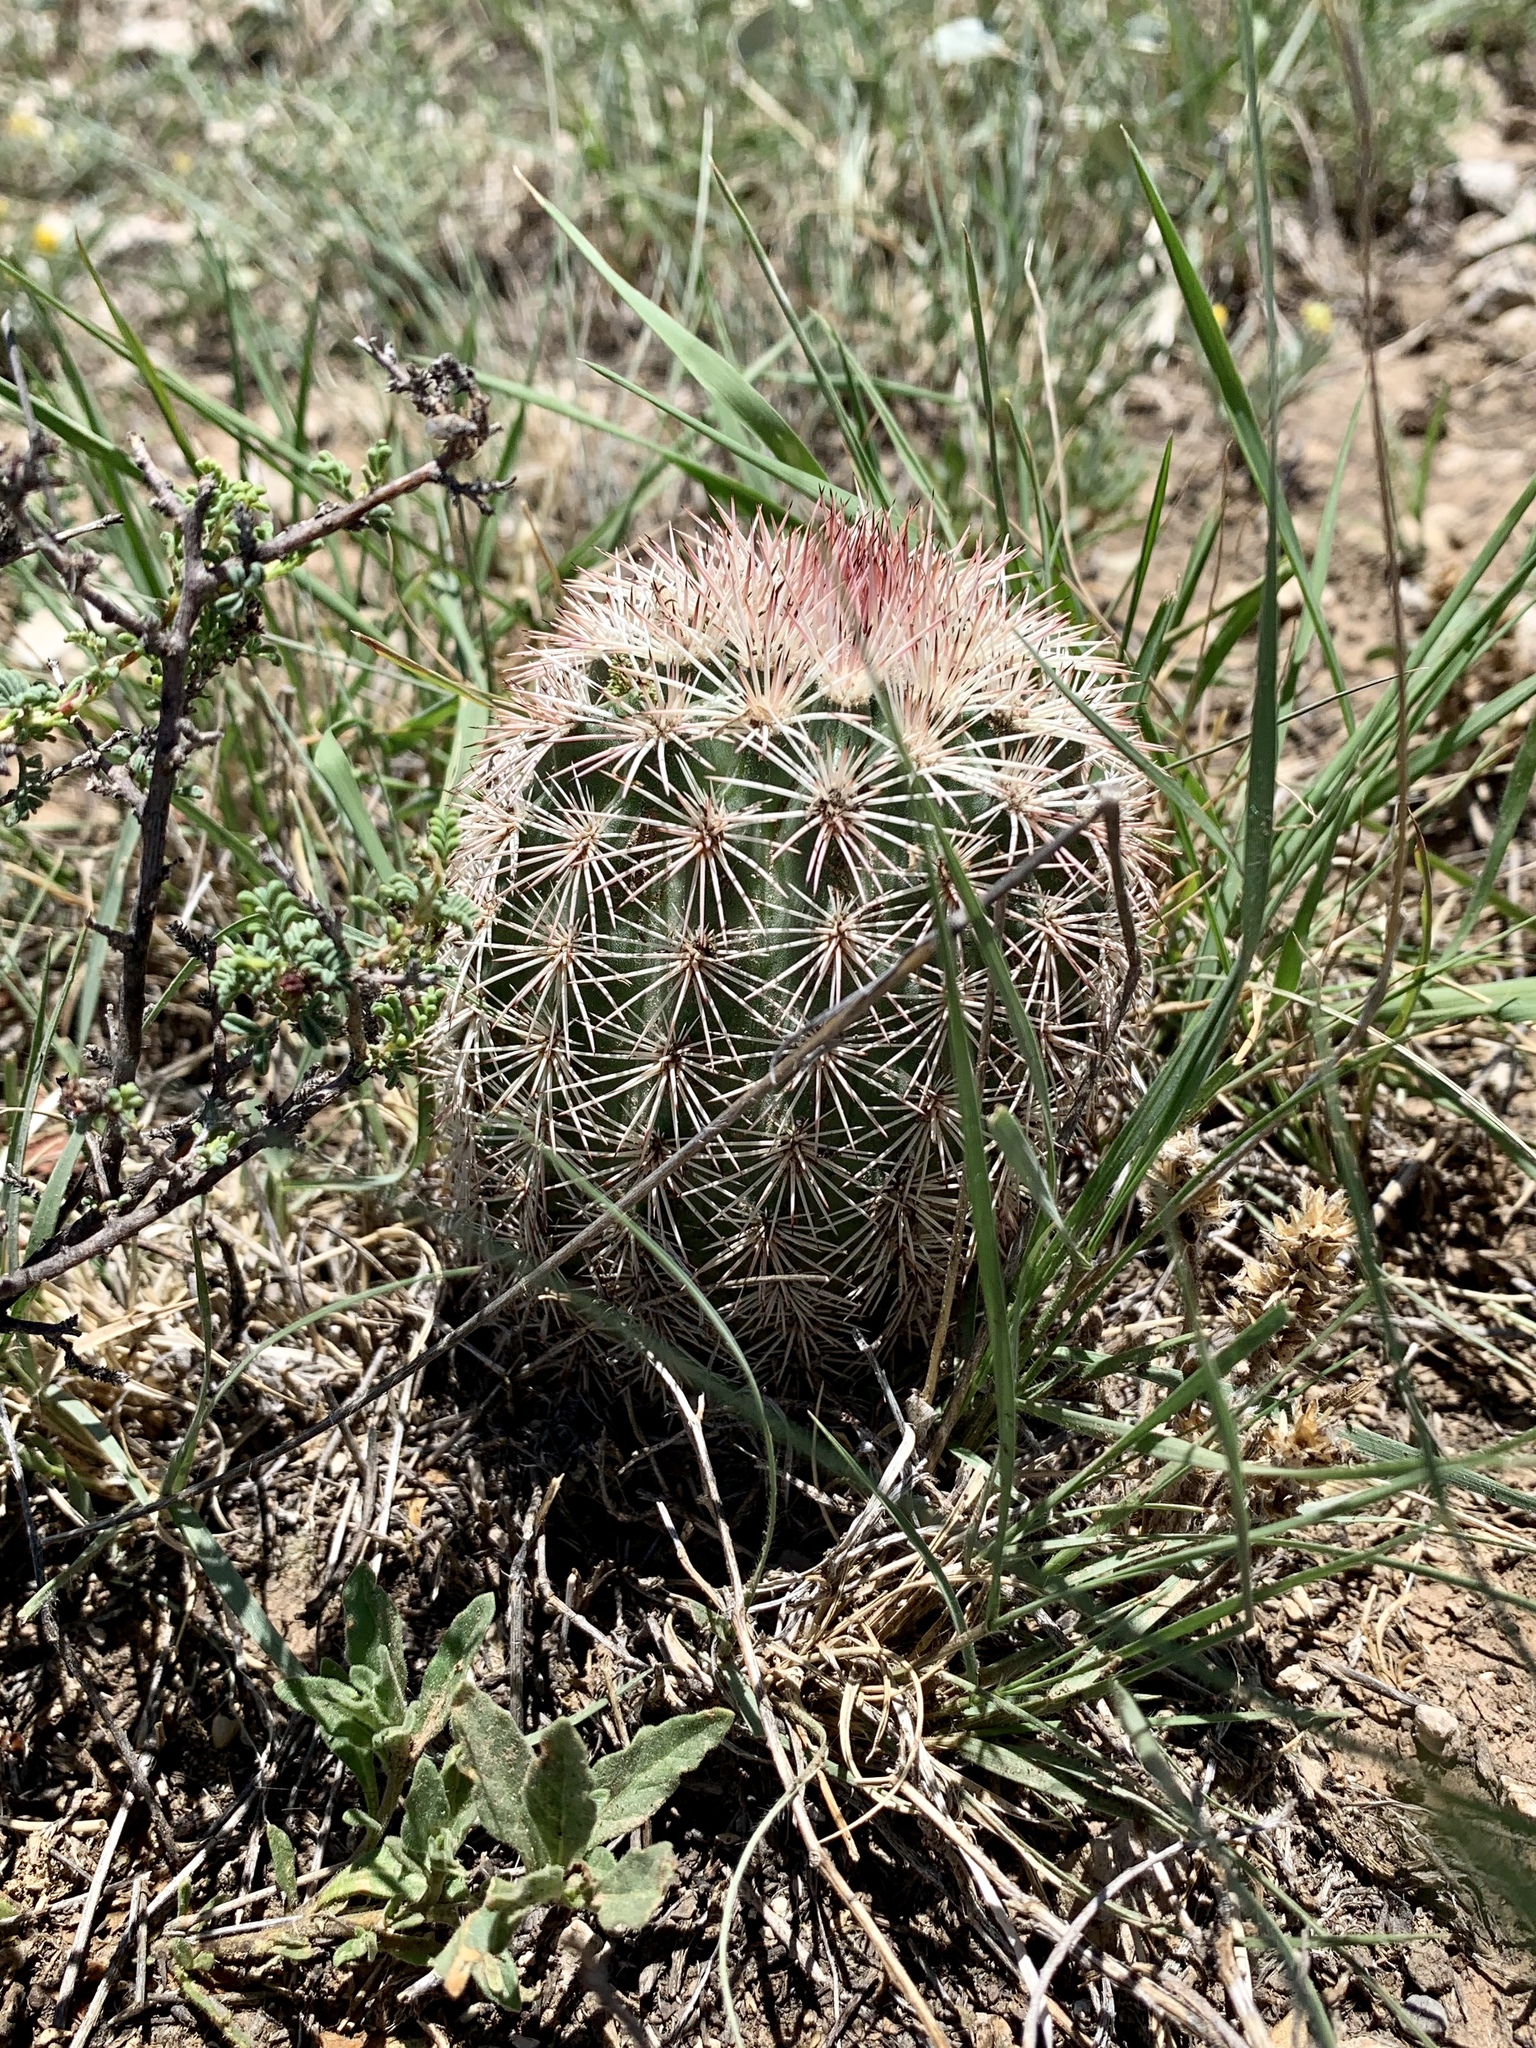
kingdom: Plantae
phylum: Tracheophyta
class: Magnoliopsida
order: Caryophyllales
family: Cactaceae
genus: Echinocereus
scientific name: Echinocereus dasyacanthus
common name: Spiny hedgehog cactus
